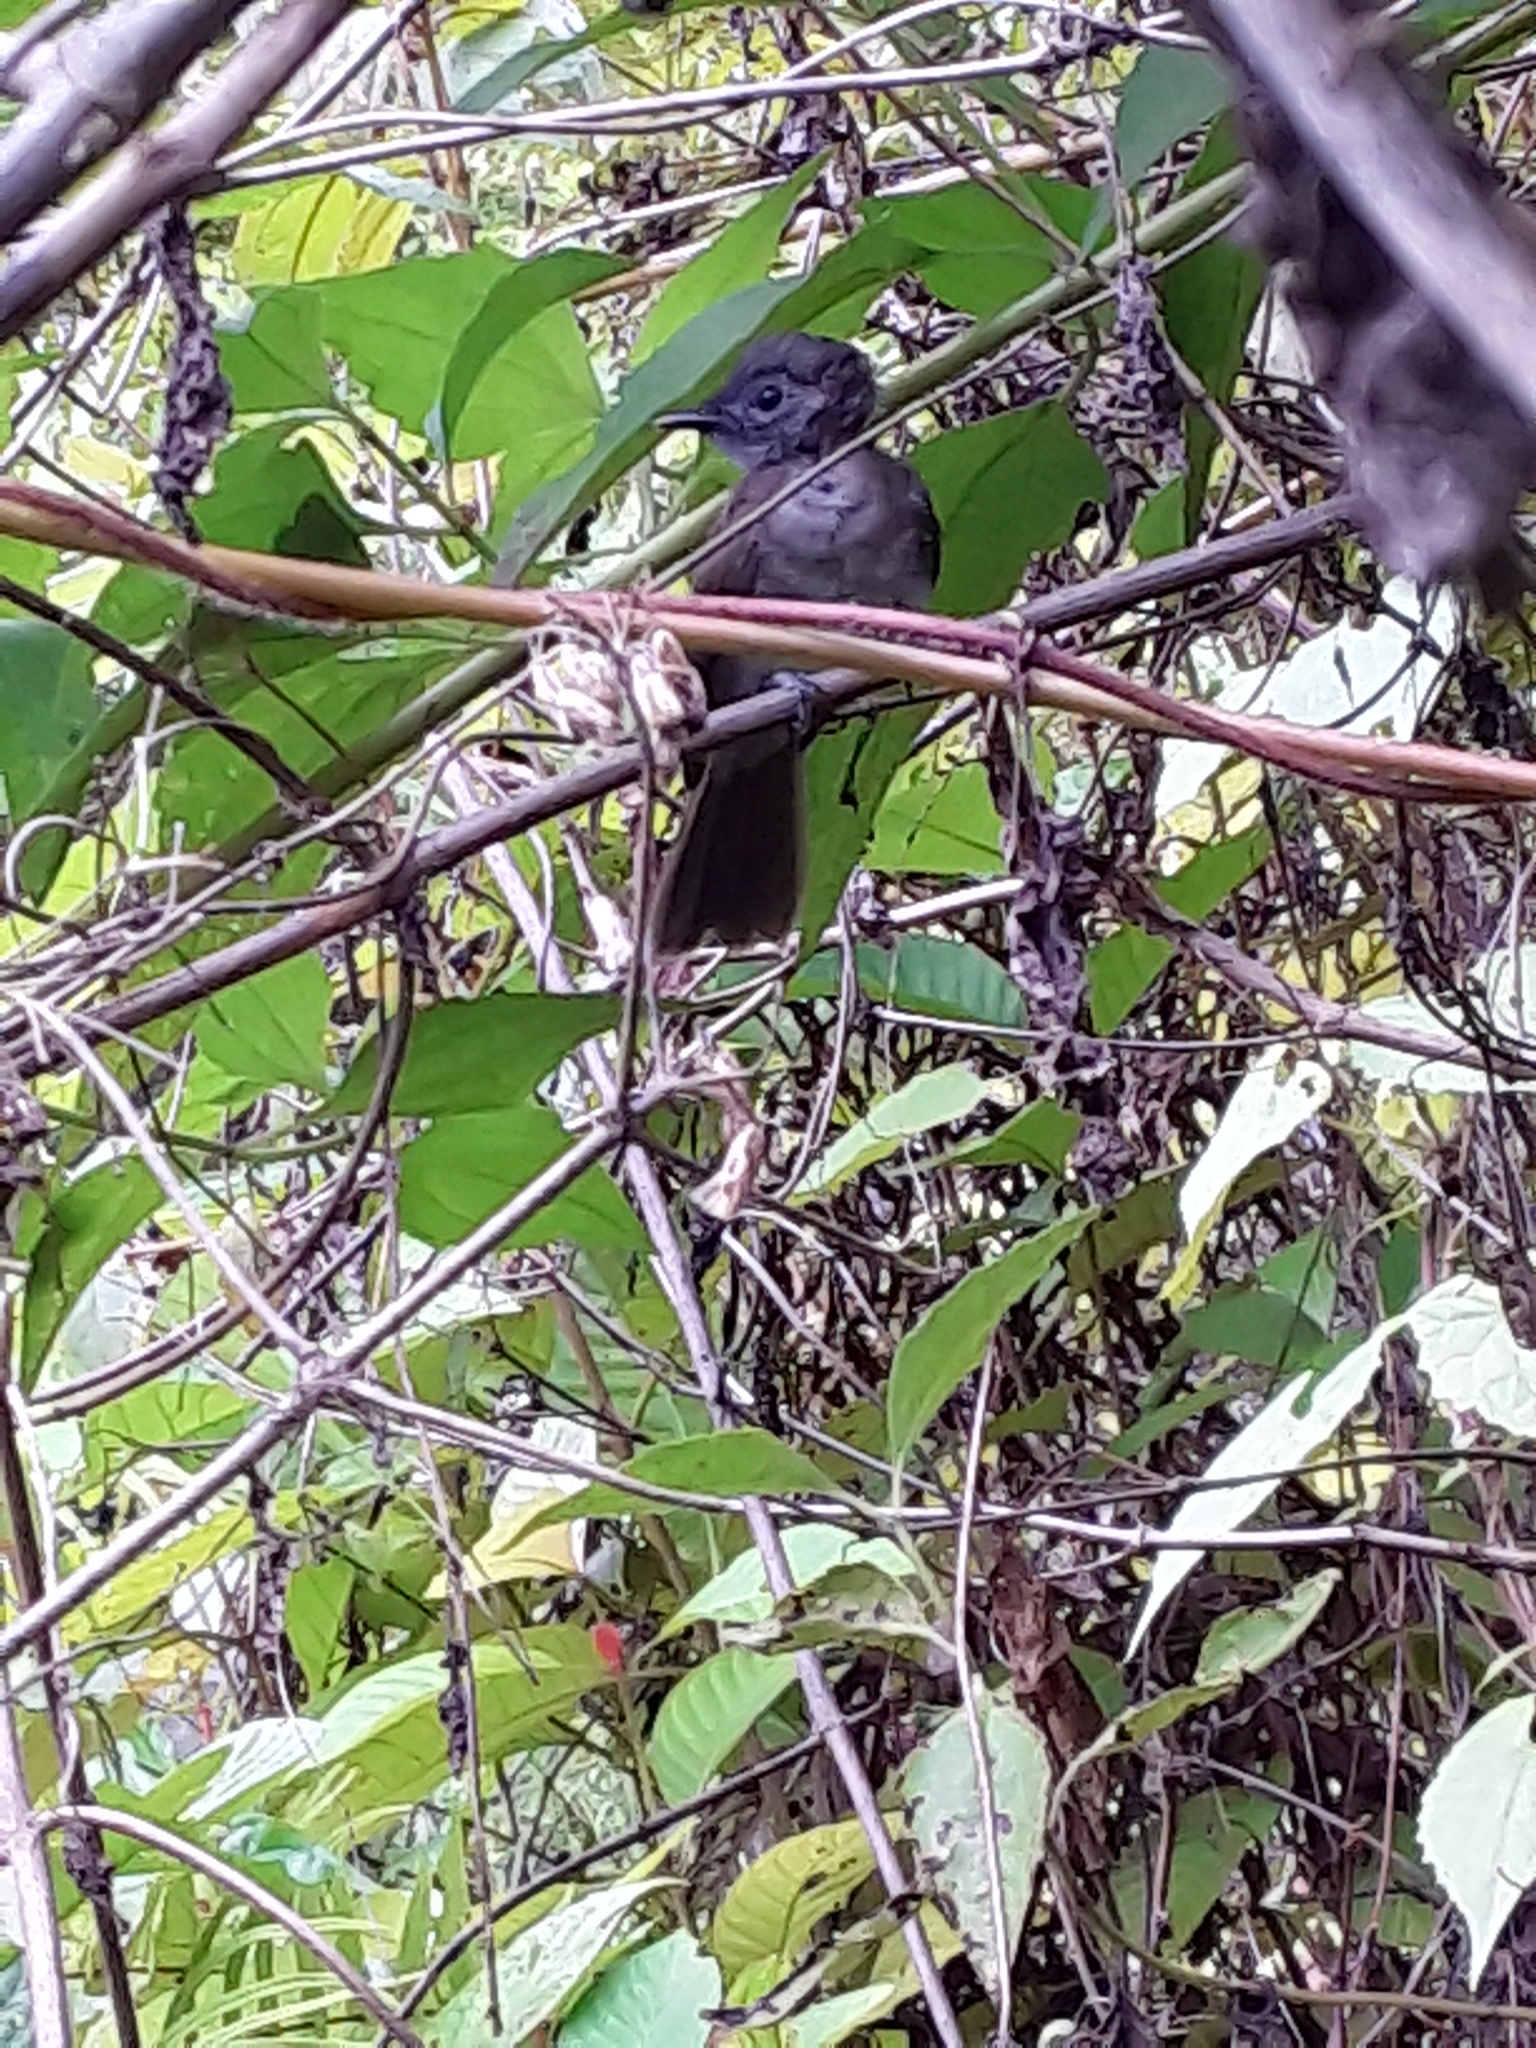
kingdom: Animalia
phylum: Chordata
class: Aves
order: Passeriformes
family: Monarchidae
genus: Hypothymis
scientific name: Hypothymis azurea
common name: Black-naped monarch
